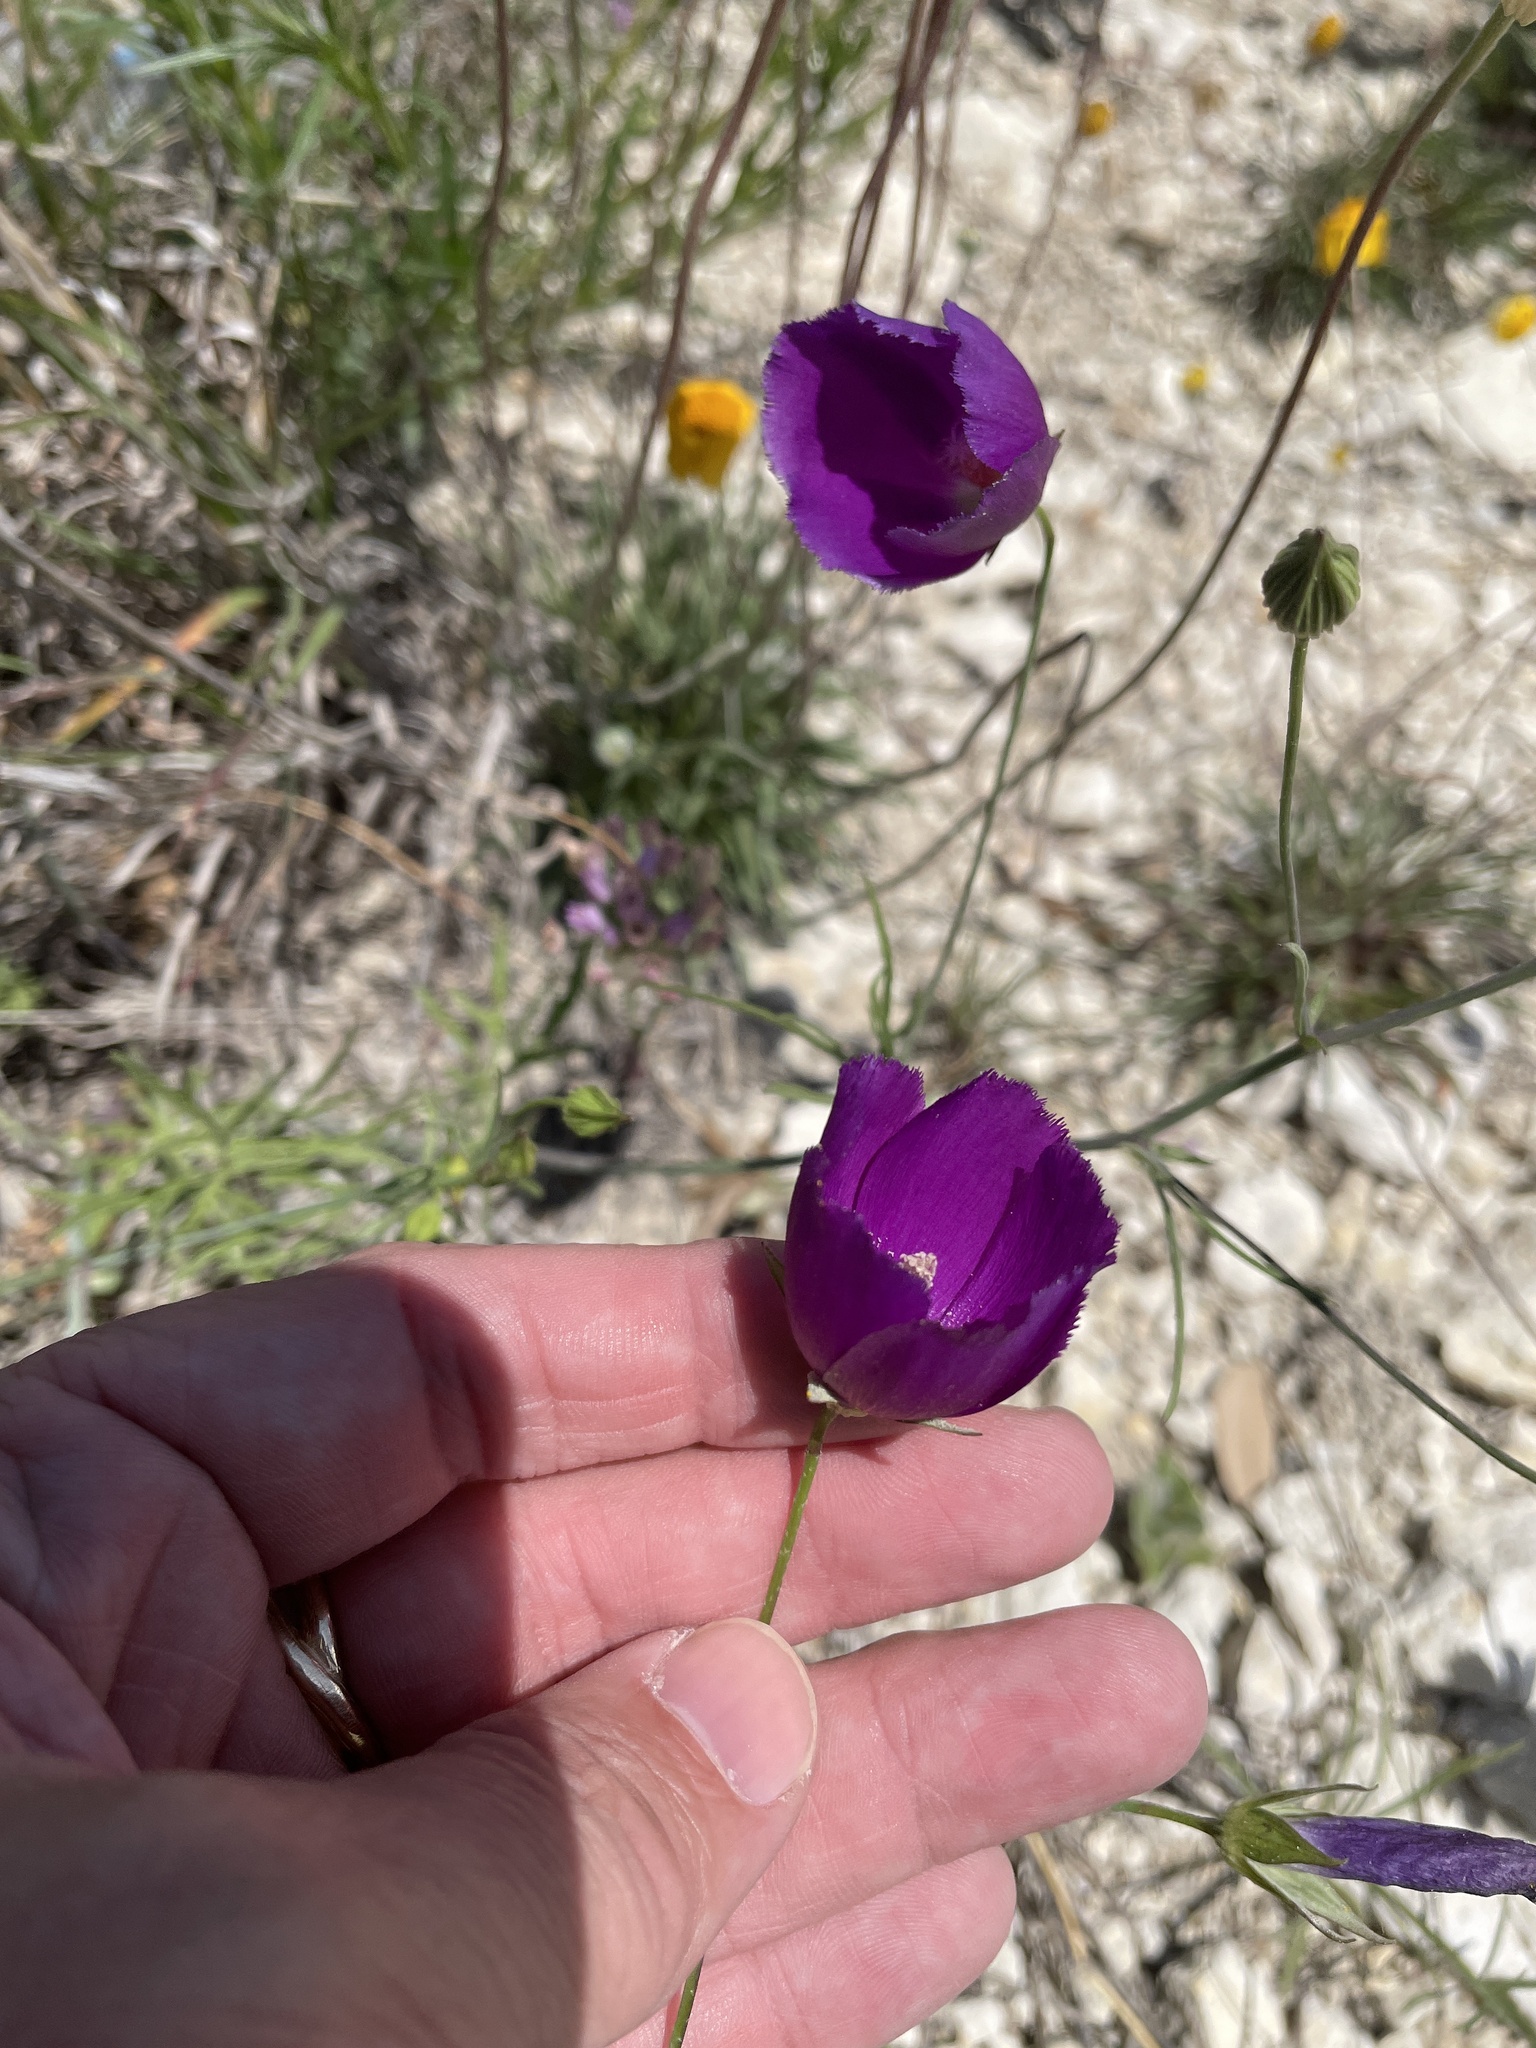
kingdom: Plantae
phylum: Tracheophyta
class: Magnoliopsida
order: Malvales
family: Malvaceae
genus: Callirhoe
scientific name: Callirhoe pedata
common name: Finger poppy-mallow
